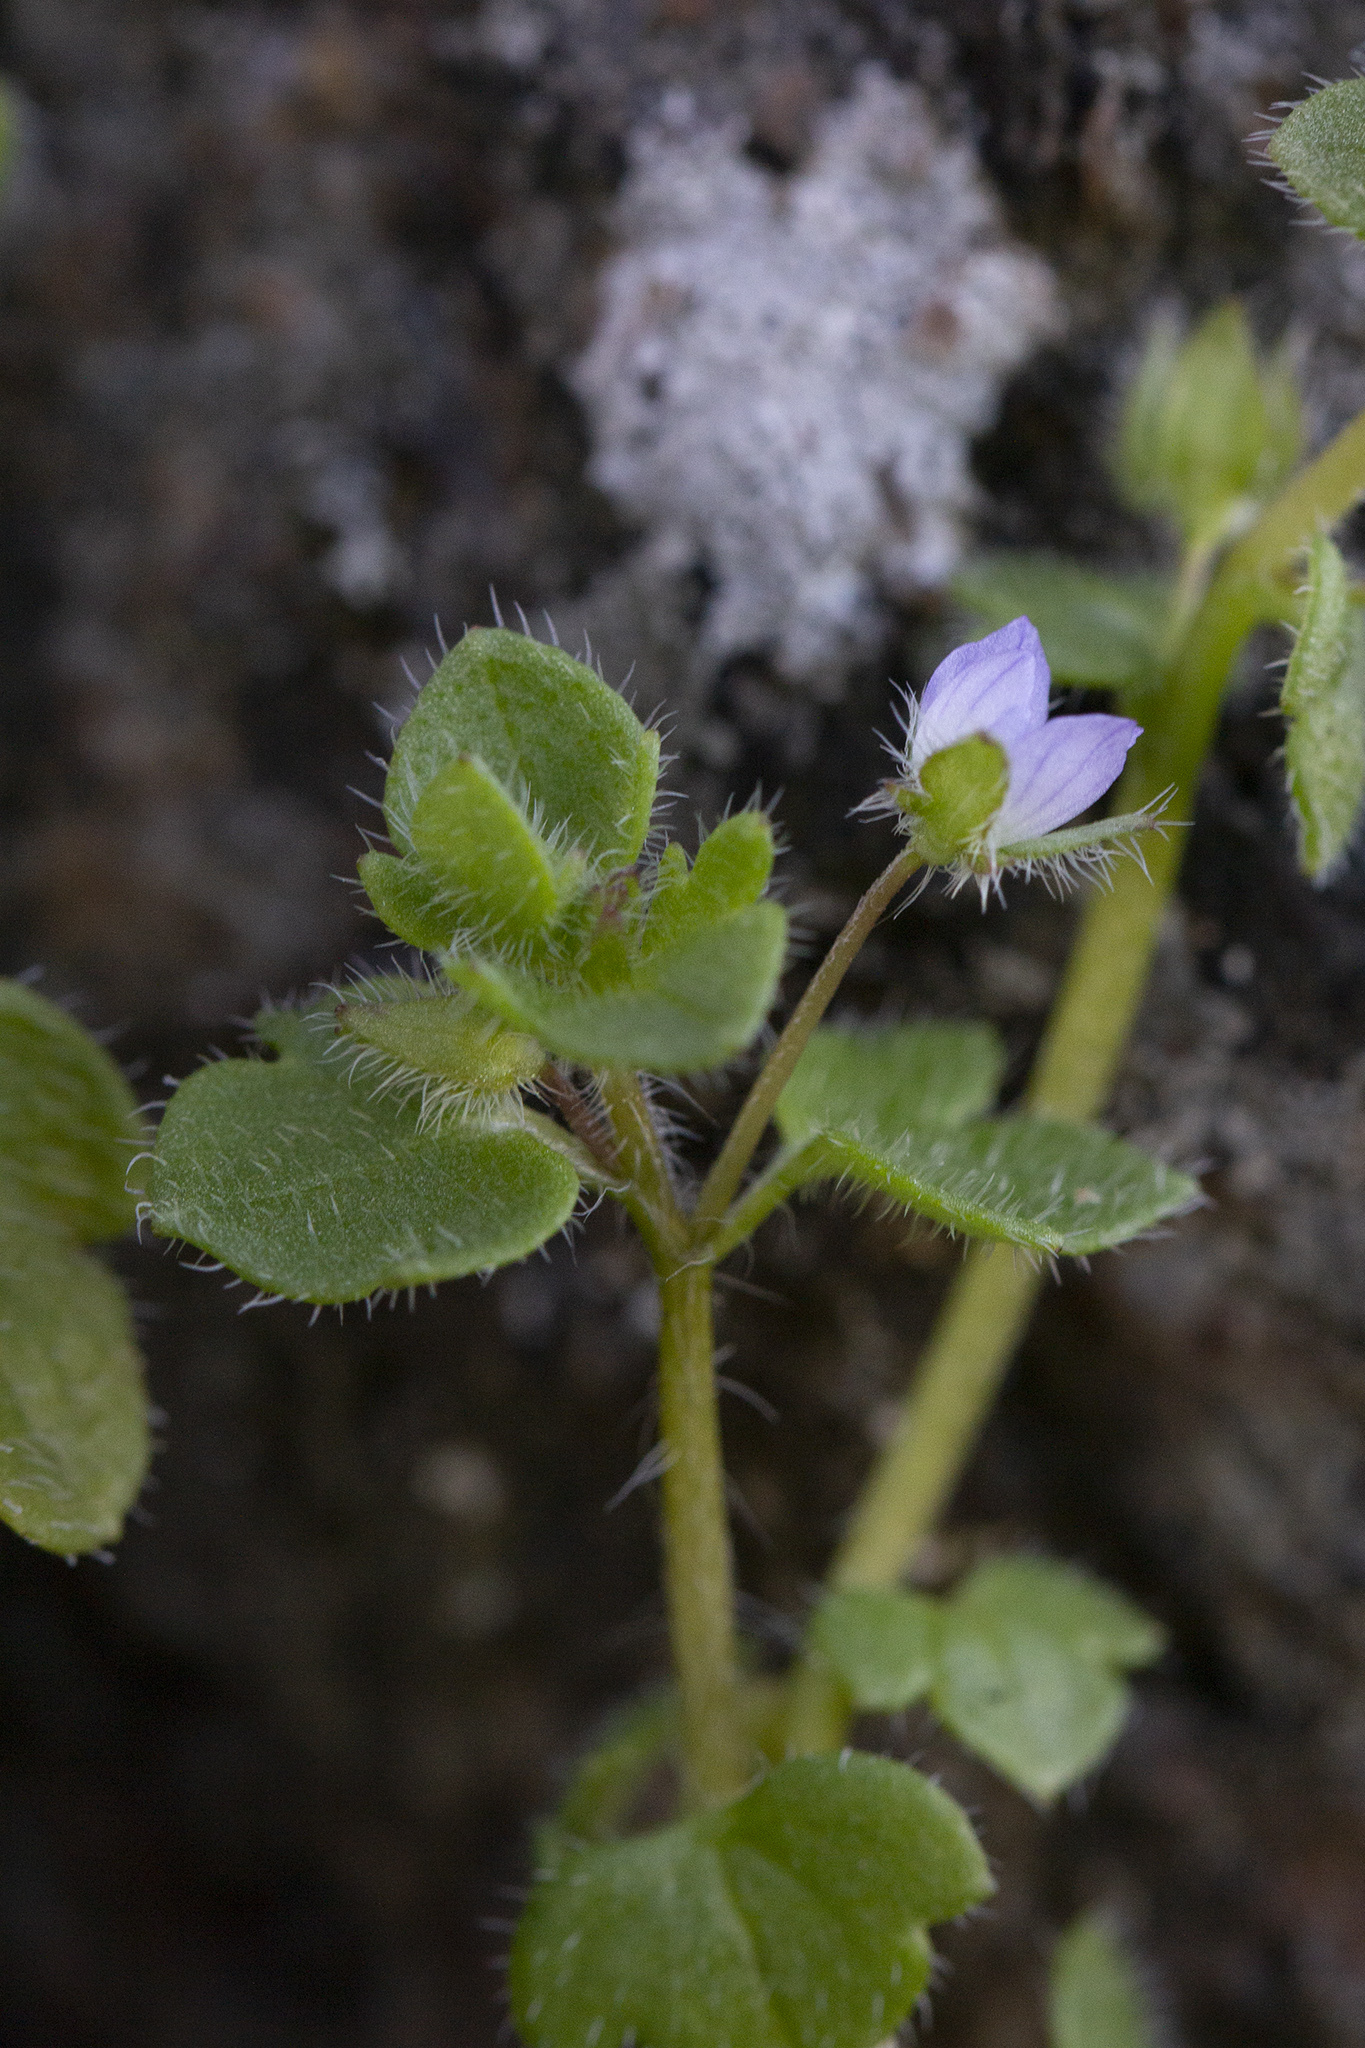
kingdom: Plantae
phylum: Tracheophyta
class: Magnoliopsida
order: Lamiales
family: Plantaginaceae
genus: Veronica
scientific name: Veronica hederifolia
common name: Ivy-leaved speedwell
